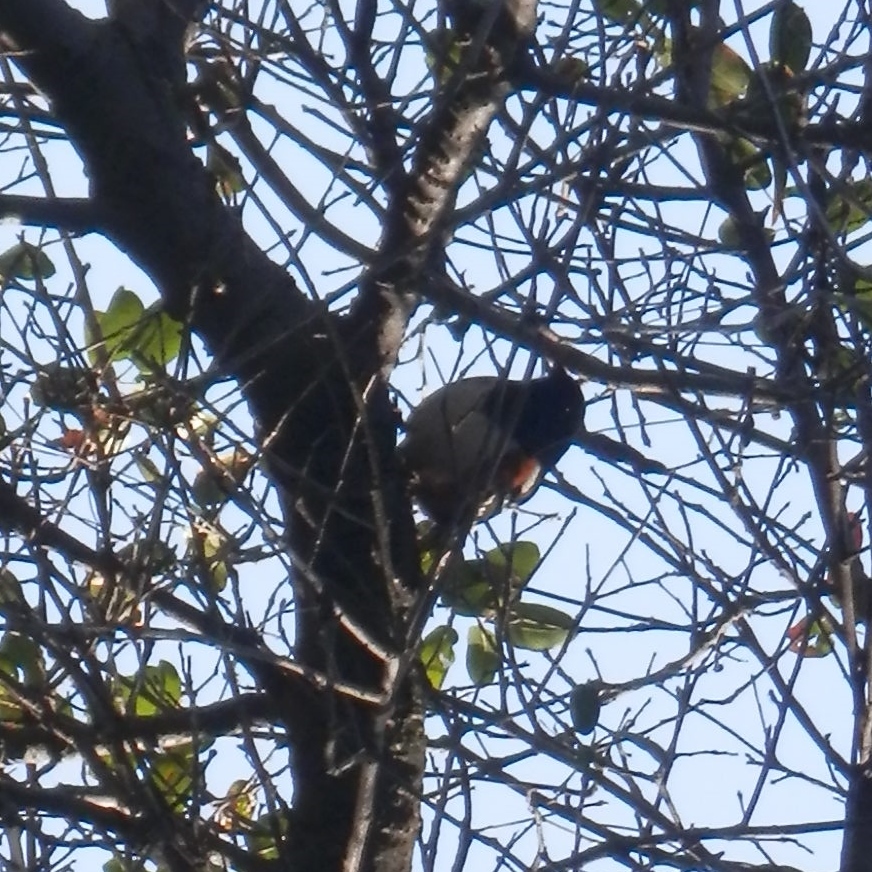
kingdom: Animalia
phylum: Chordata
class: Aves
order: Passeriformes
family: Passerellidae
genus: Pipilo
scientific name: Pipilo maculatus
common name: Spotted towhee
